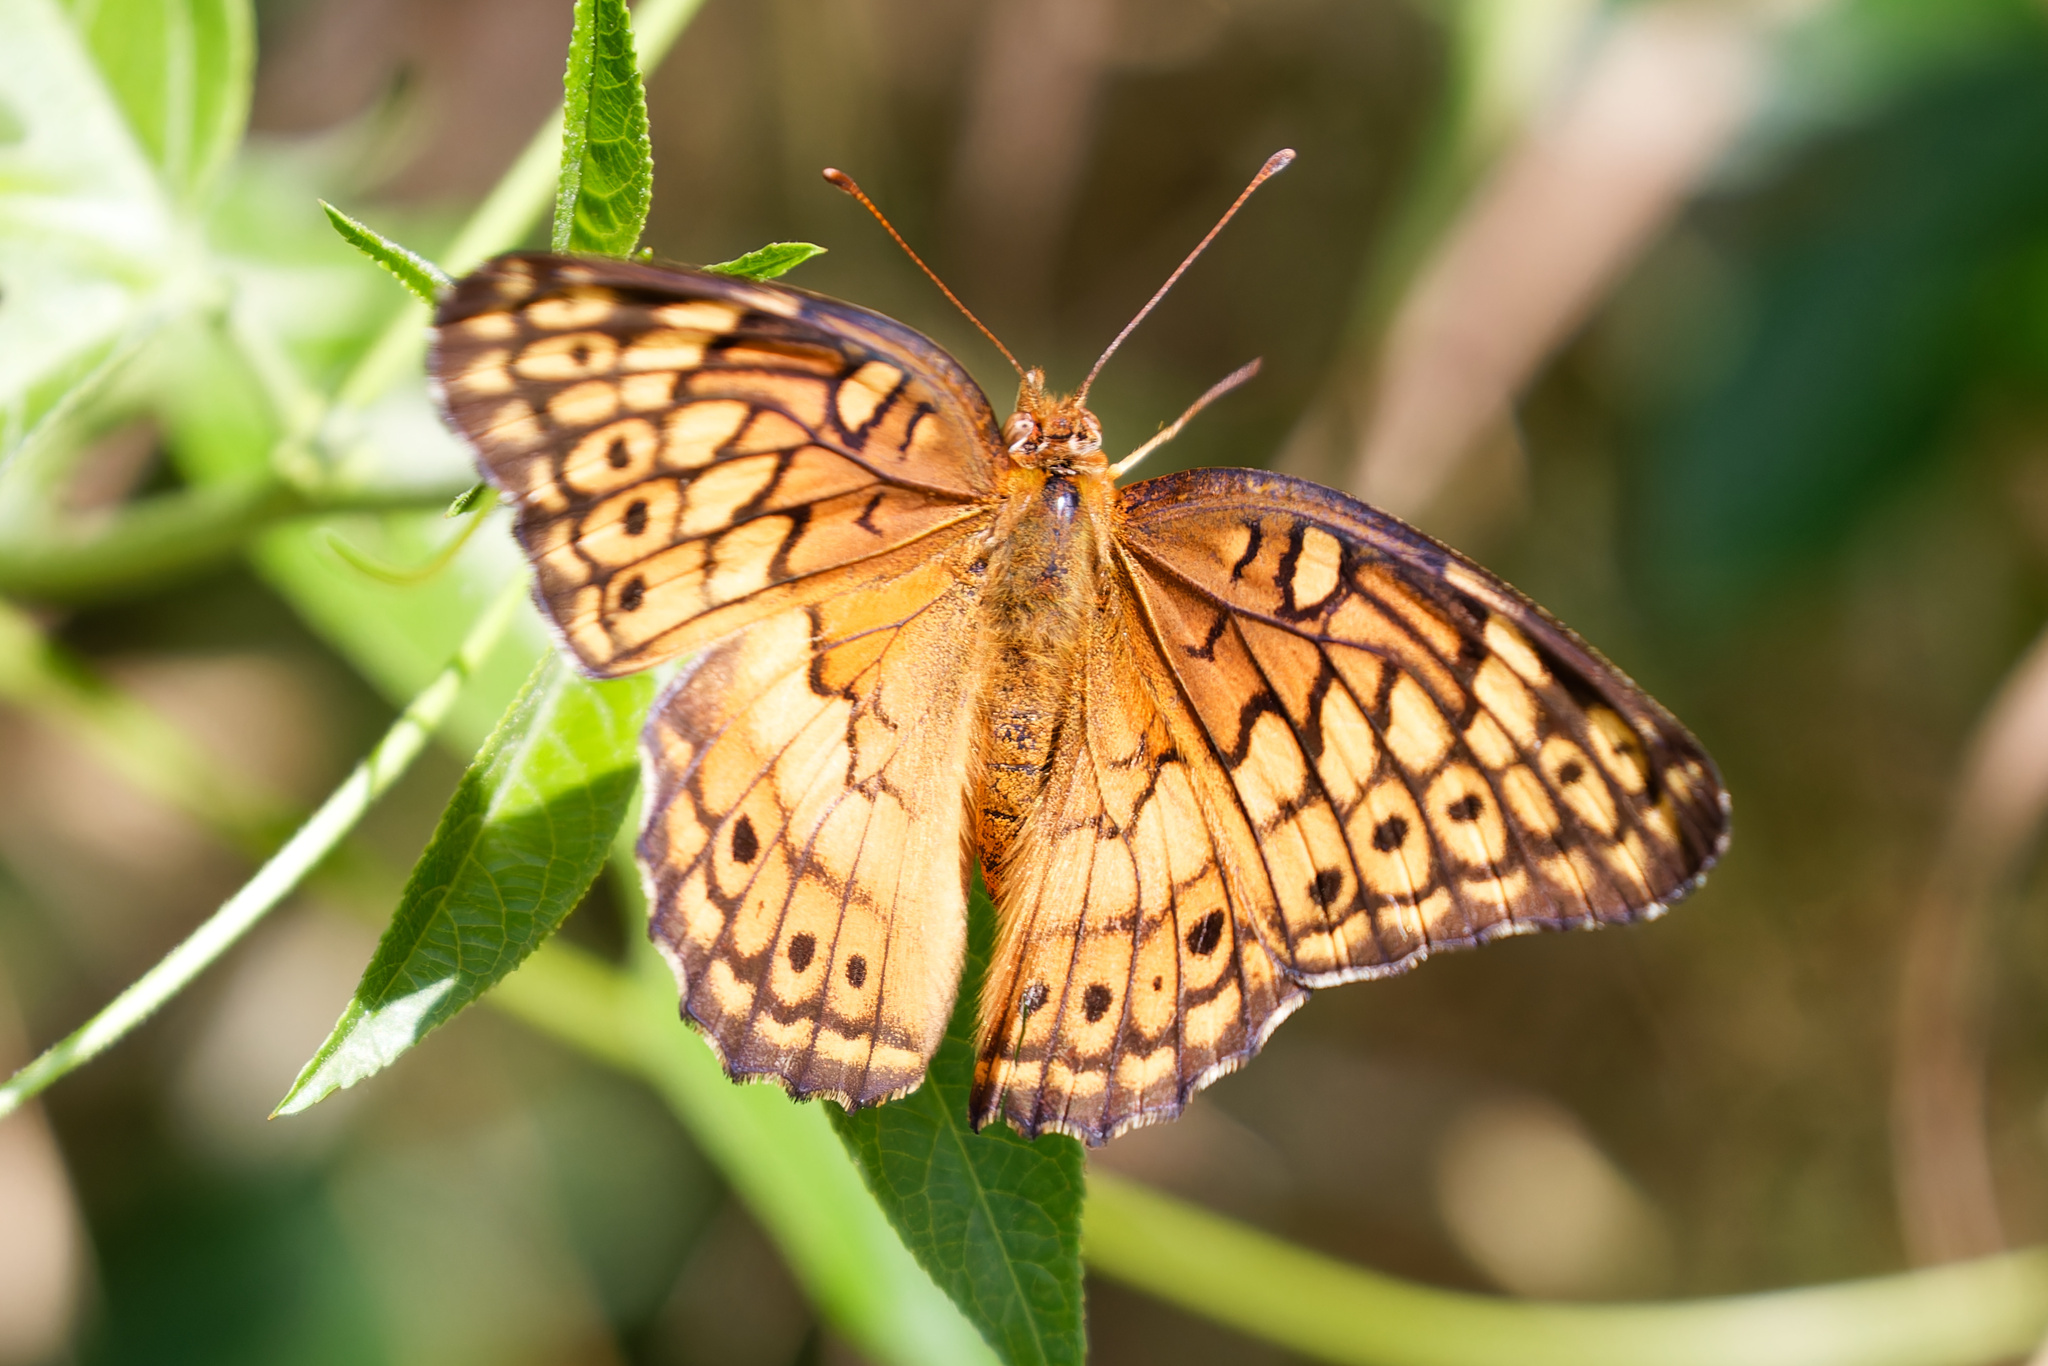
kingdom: Animalia
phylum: Arthropoda
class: Insecta
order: Lepidoptera
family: Nymphalidae
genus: Euptoieta
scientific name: Euptoieta claudia
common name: Variegated fritillary
